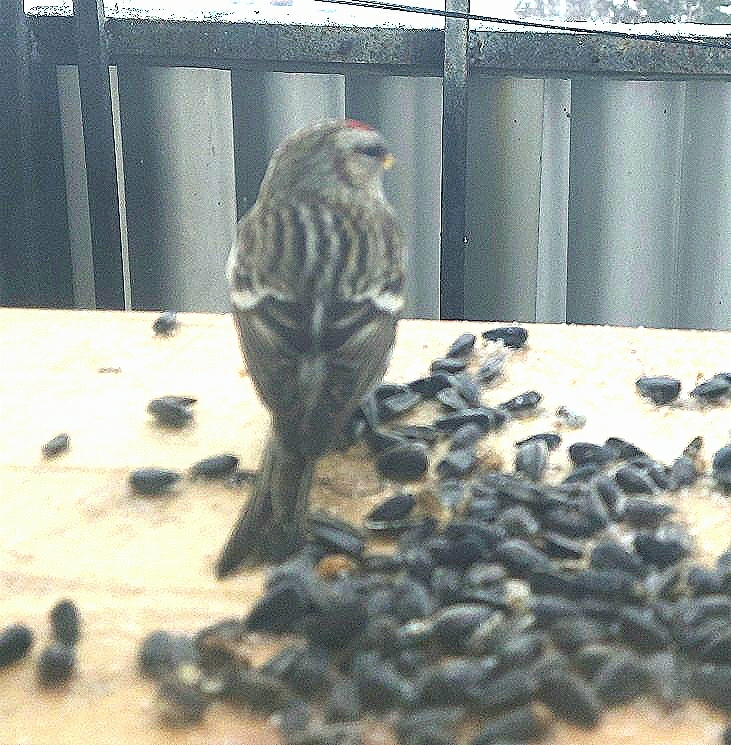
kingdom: Animalia
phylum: Chordata
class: Aves
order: Passeriformes
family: Fringillidae
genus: Acanthis
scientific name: Acanthis flammea
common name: Common redpoll
